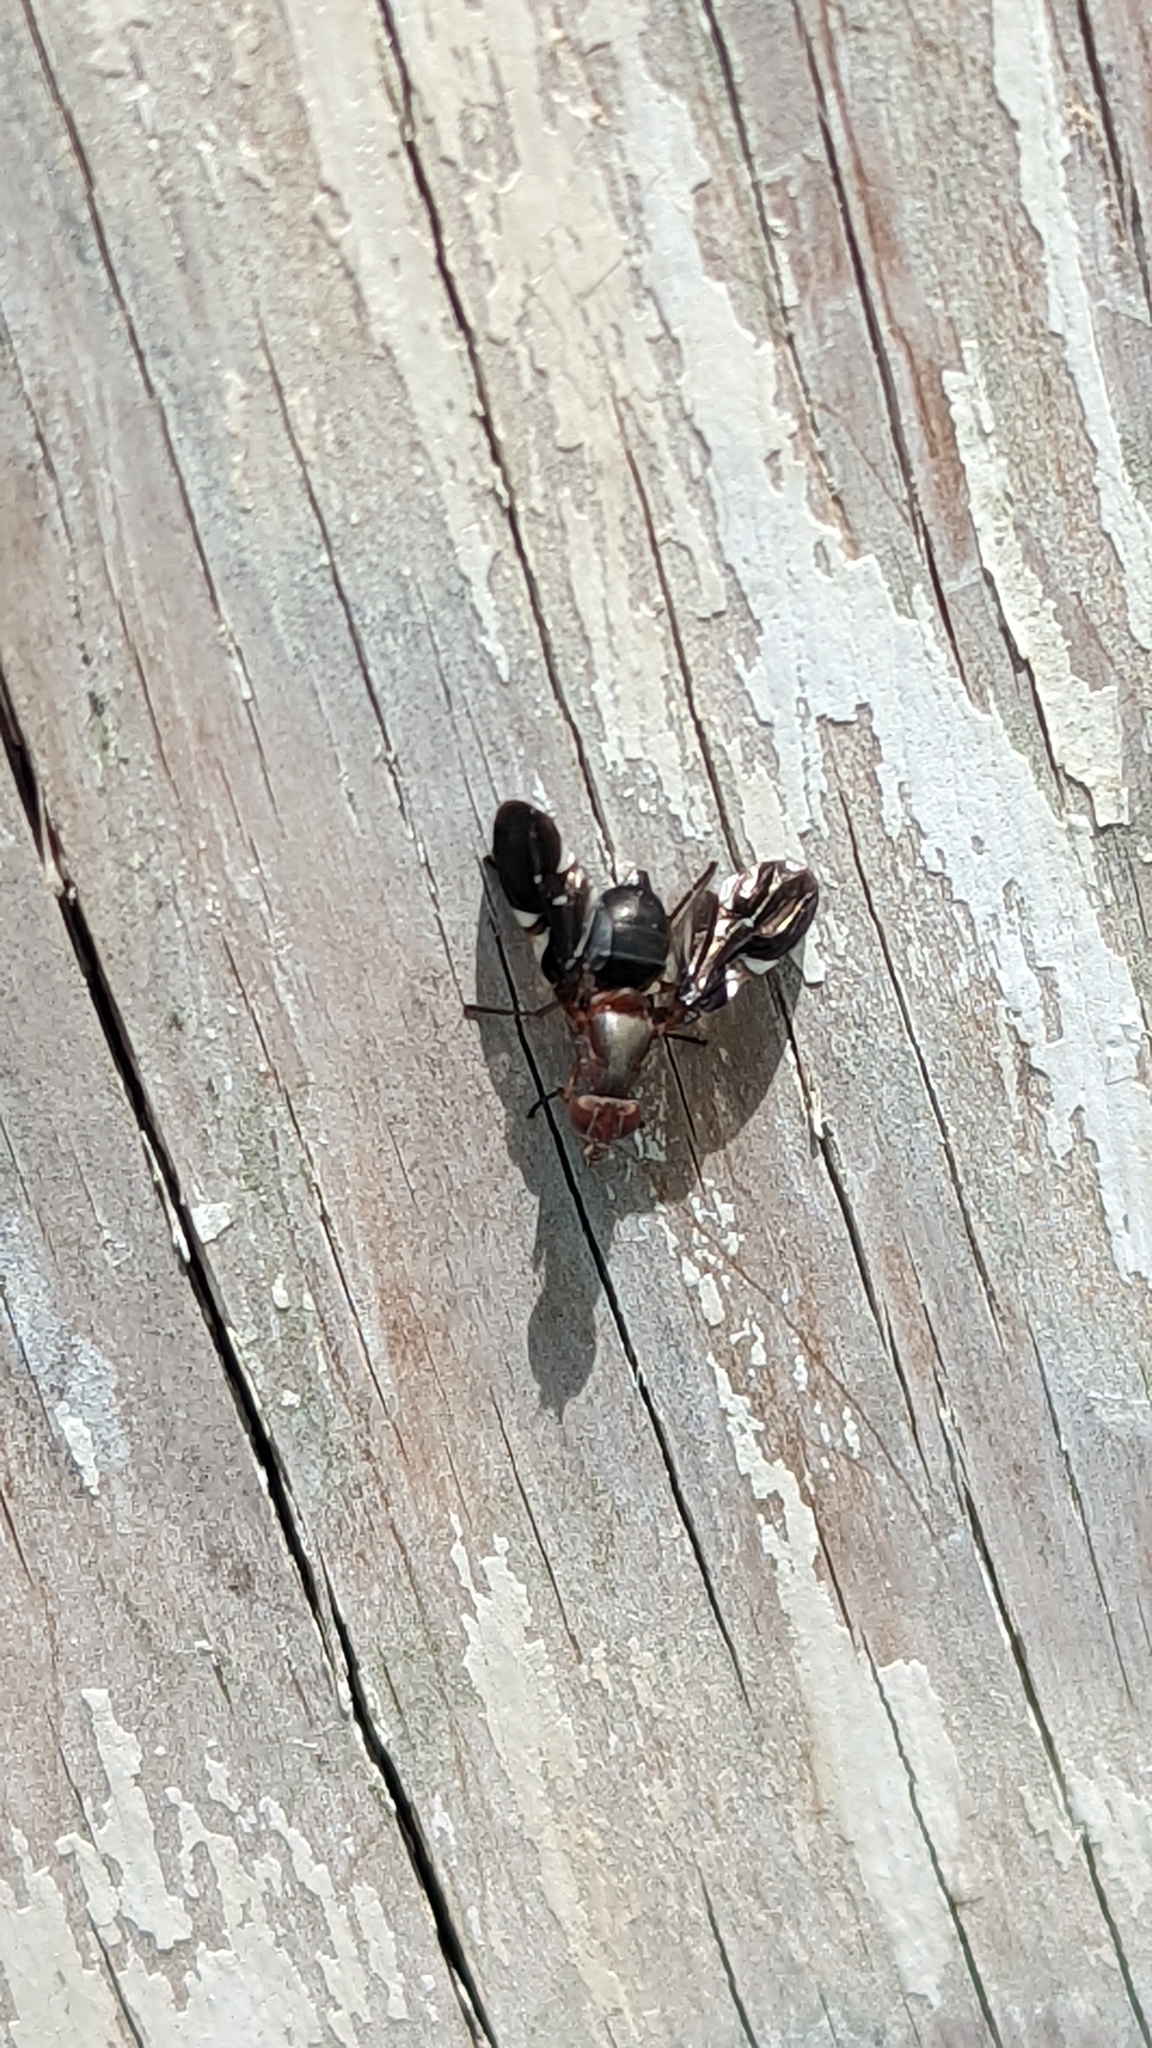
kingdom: Animalia
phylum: Arthropoda
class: Insecta
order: Diptera
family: Ulidiidae
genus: Delphinia
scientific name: Delphinia picta
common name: Common picture-winged fly
